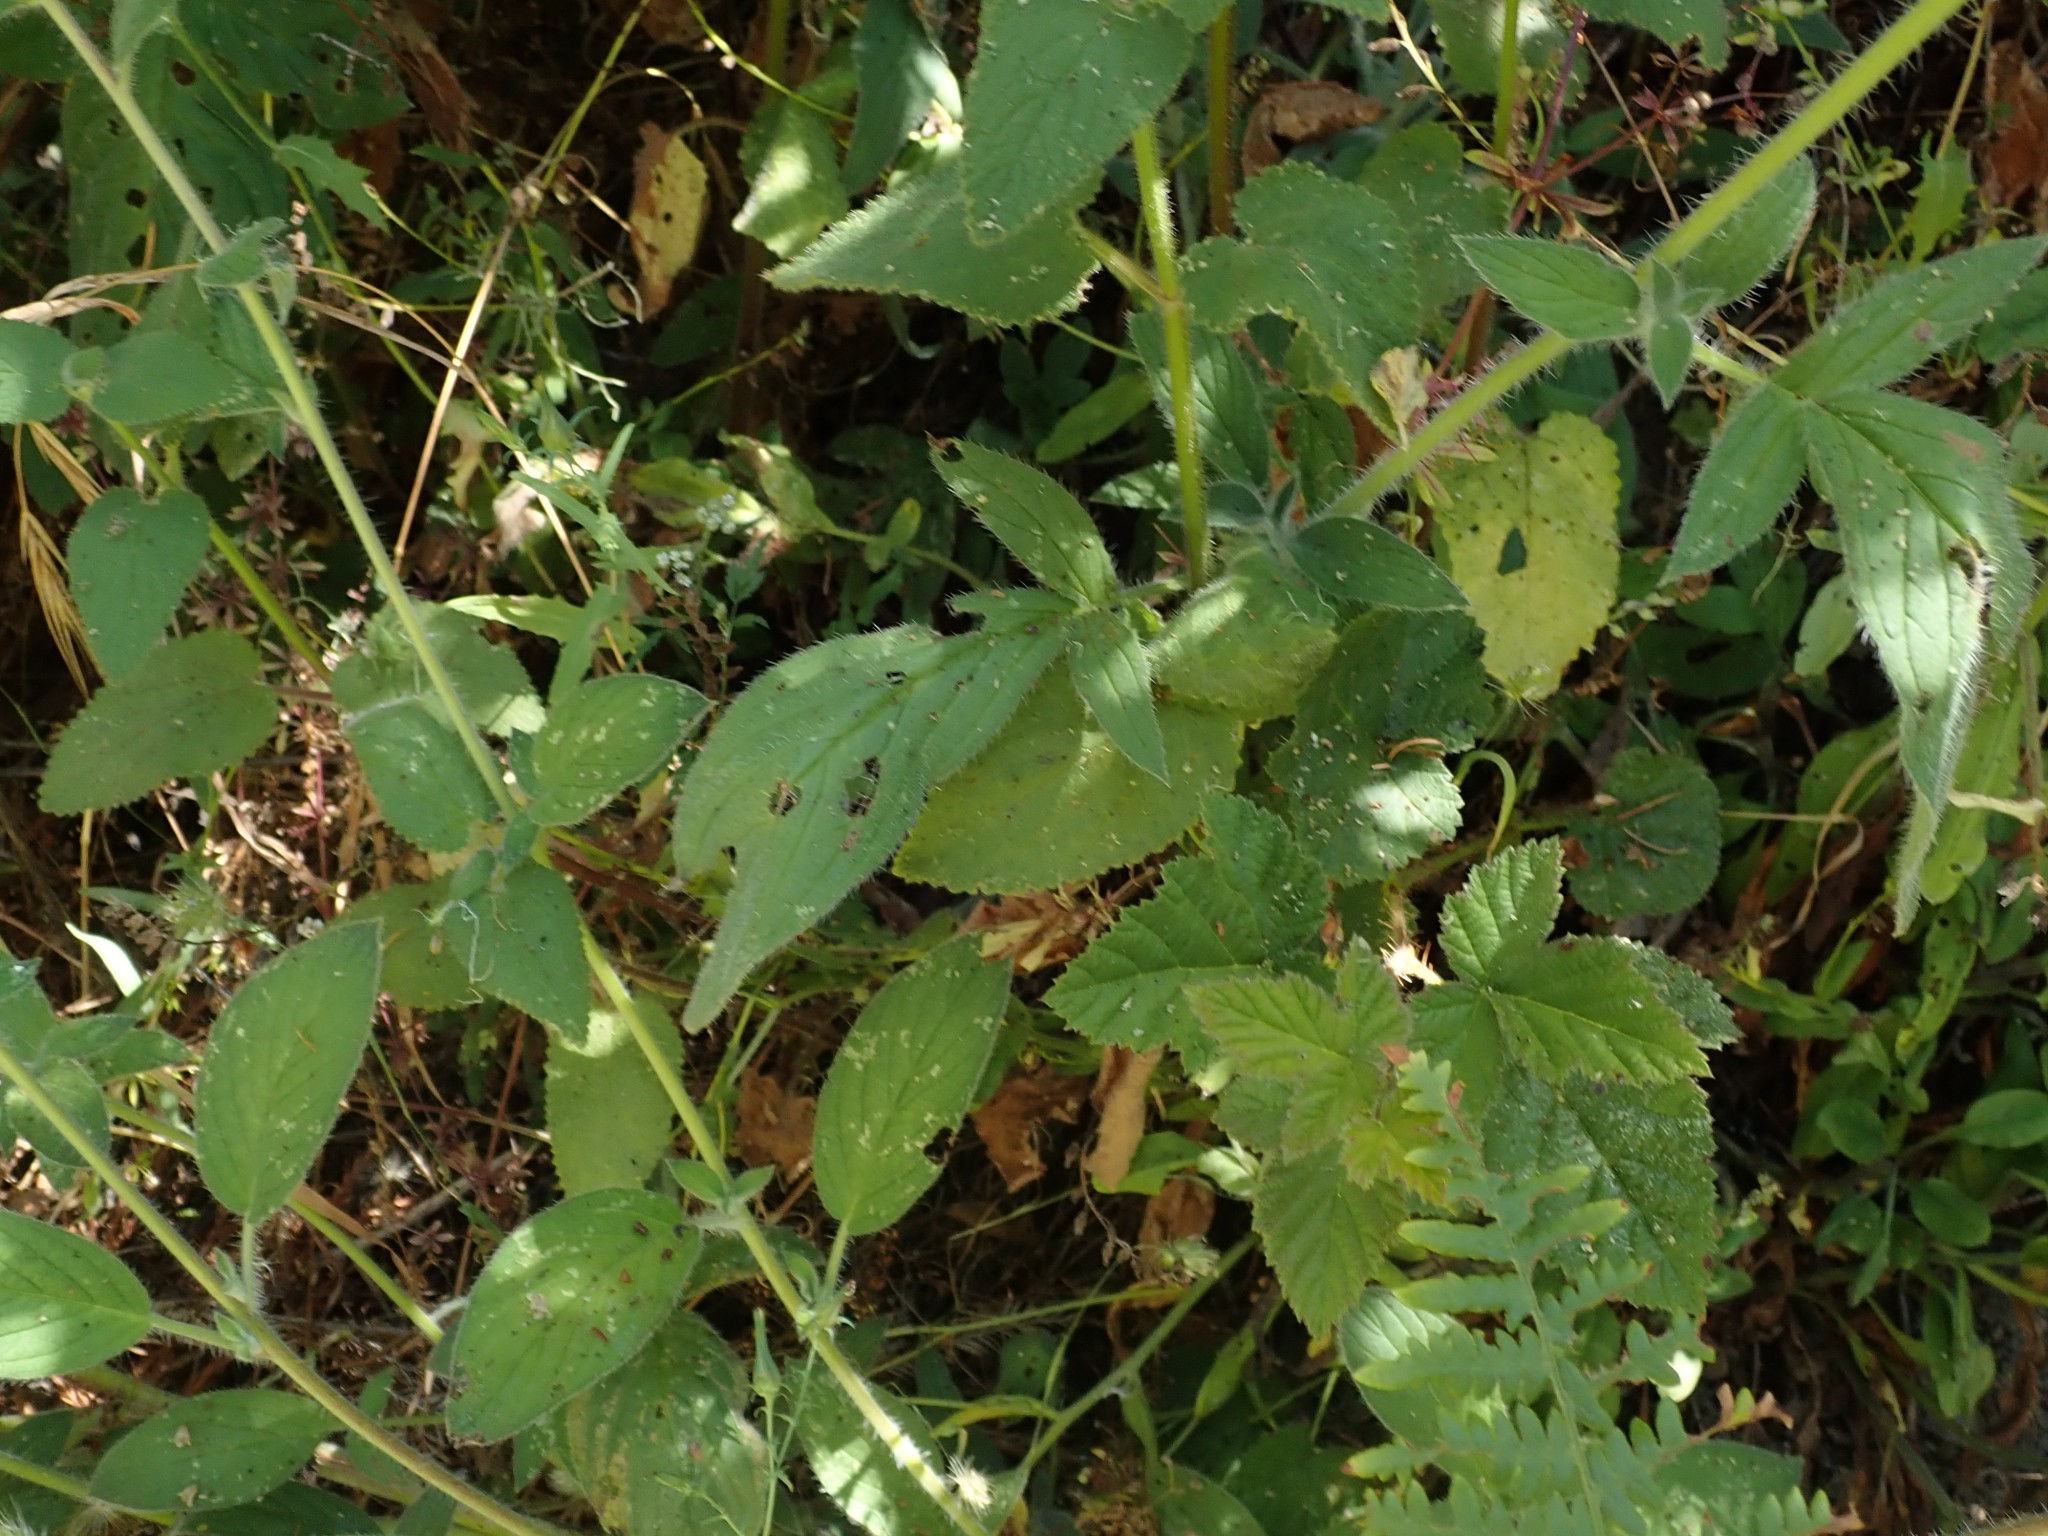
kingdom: Plantae
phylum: Tracheophyta
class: Magnoliopsida
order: Boraginales
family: Hydrophyllaceae
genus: Phacelia
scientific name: Phacelia californica
